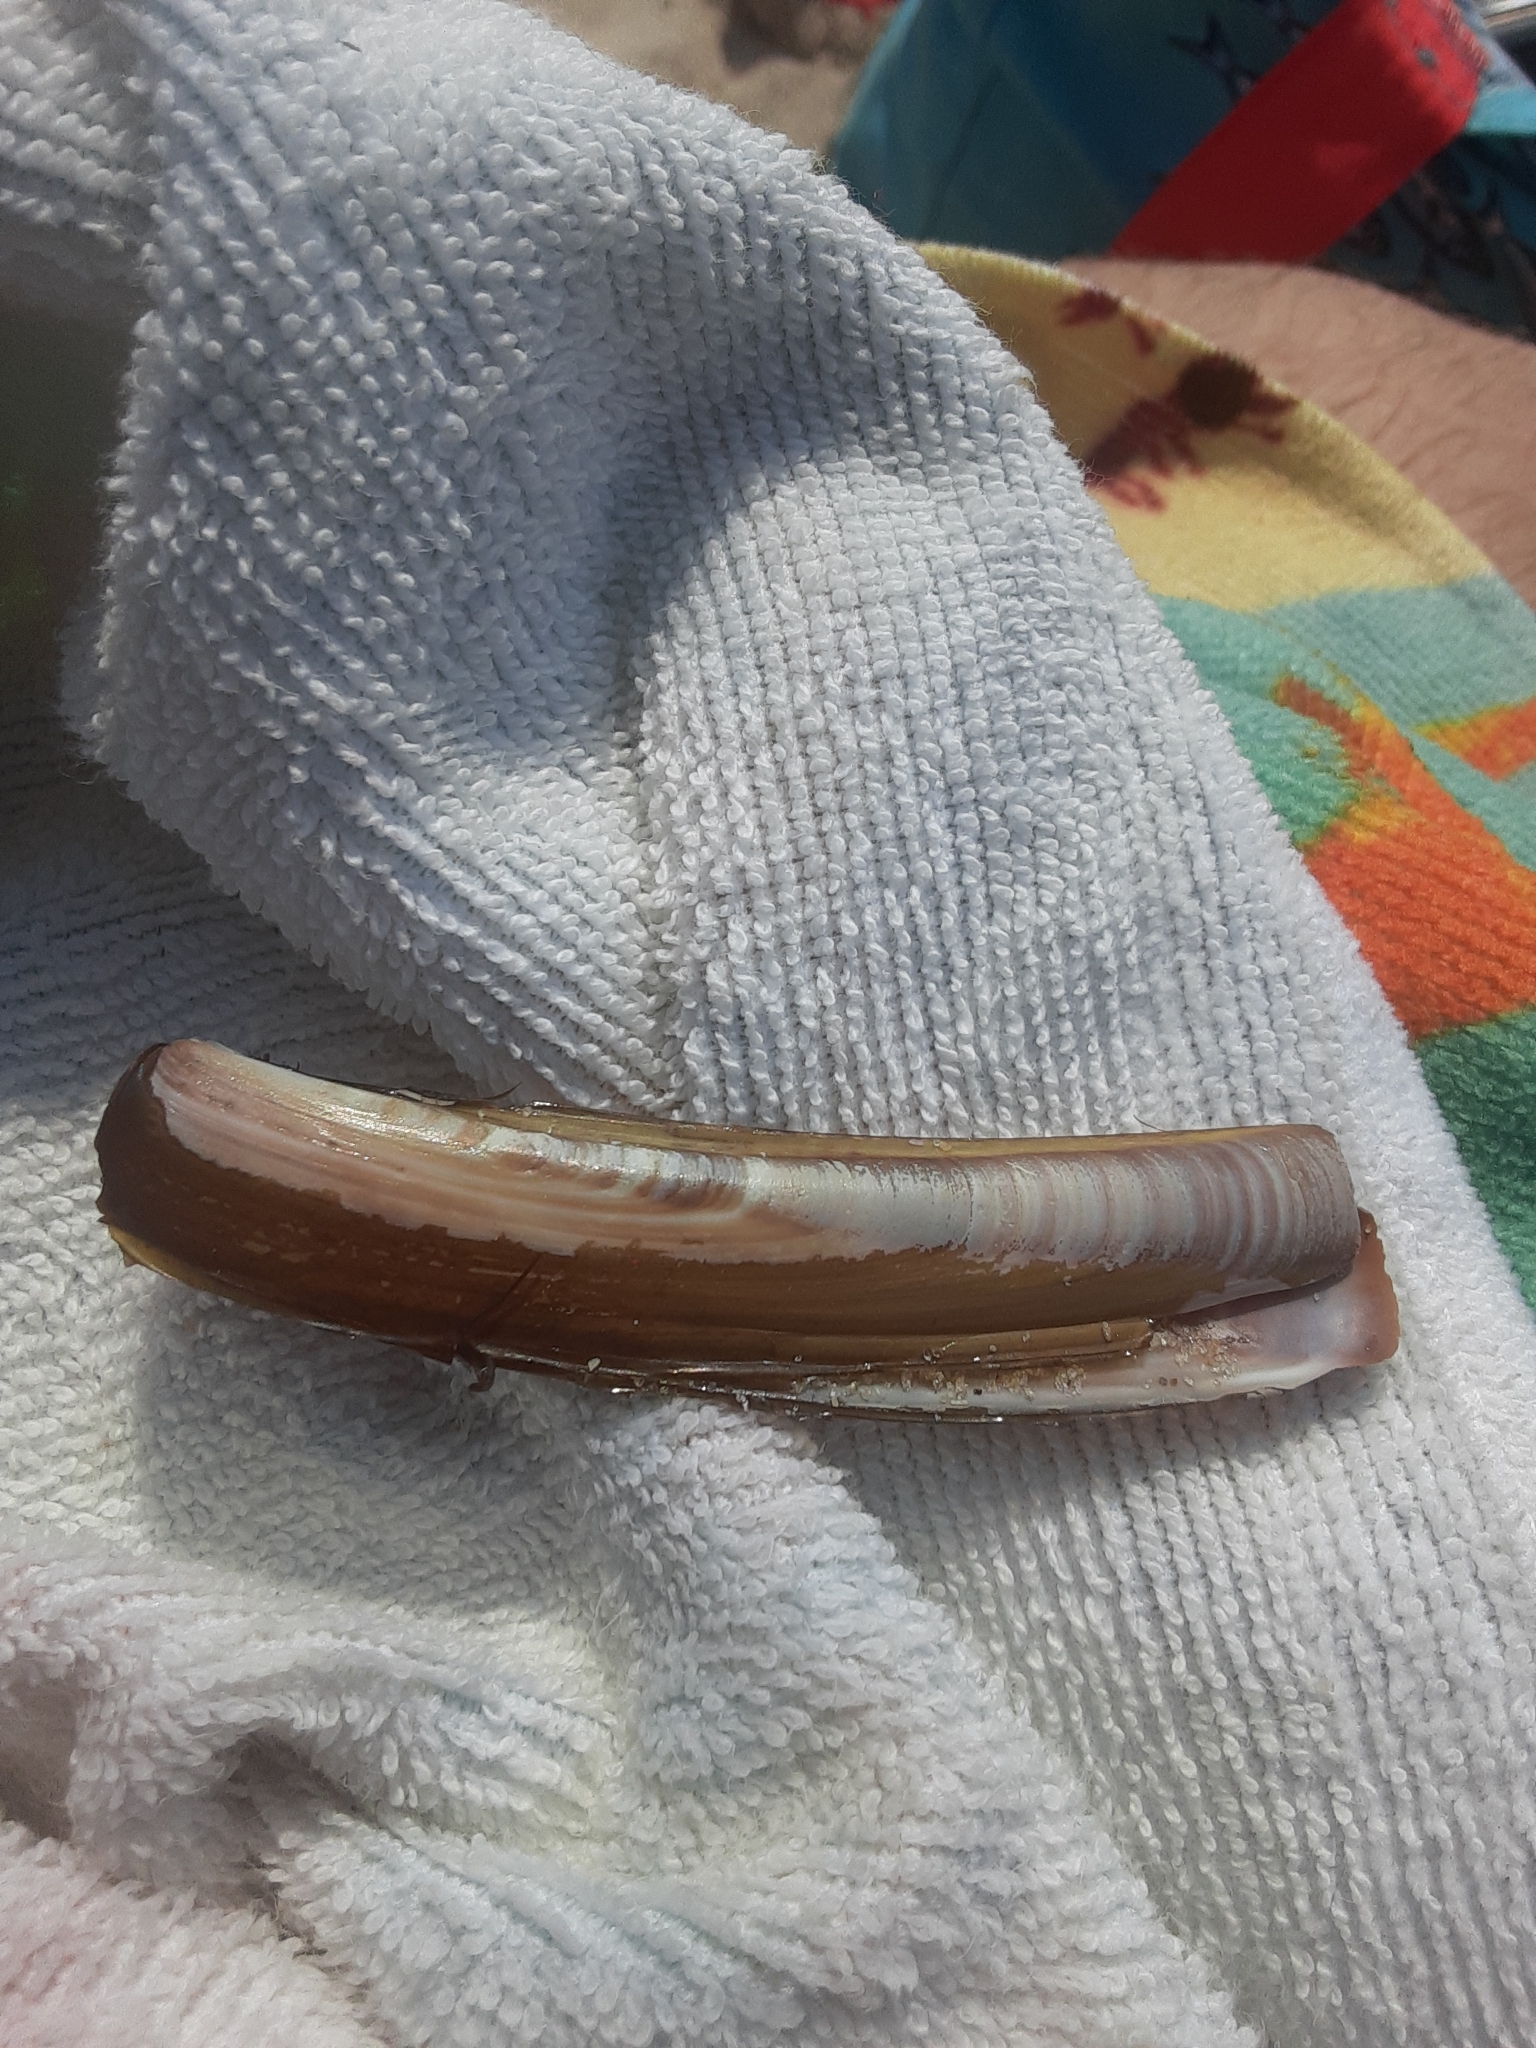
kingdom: Animalia
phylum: Mollusca
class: Bivalvia
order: Adapedonta
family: Pharidae
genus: Ensis
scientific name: Ensis leei
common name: American jack knife clam
